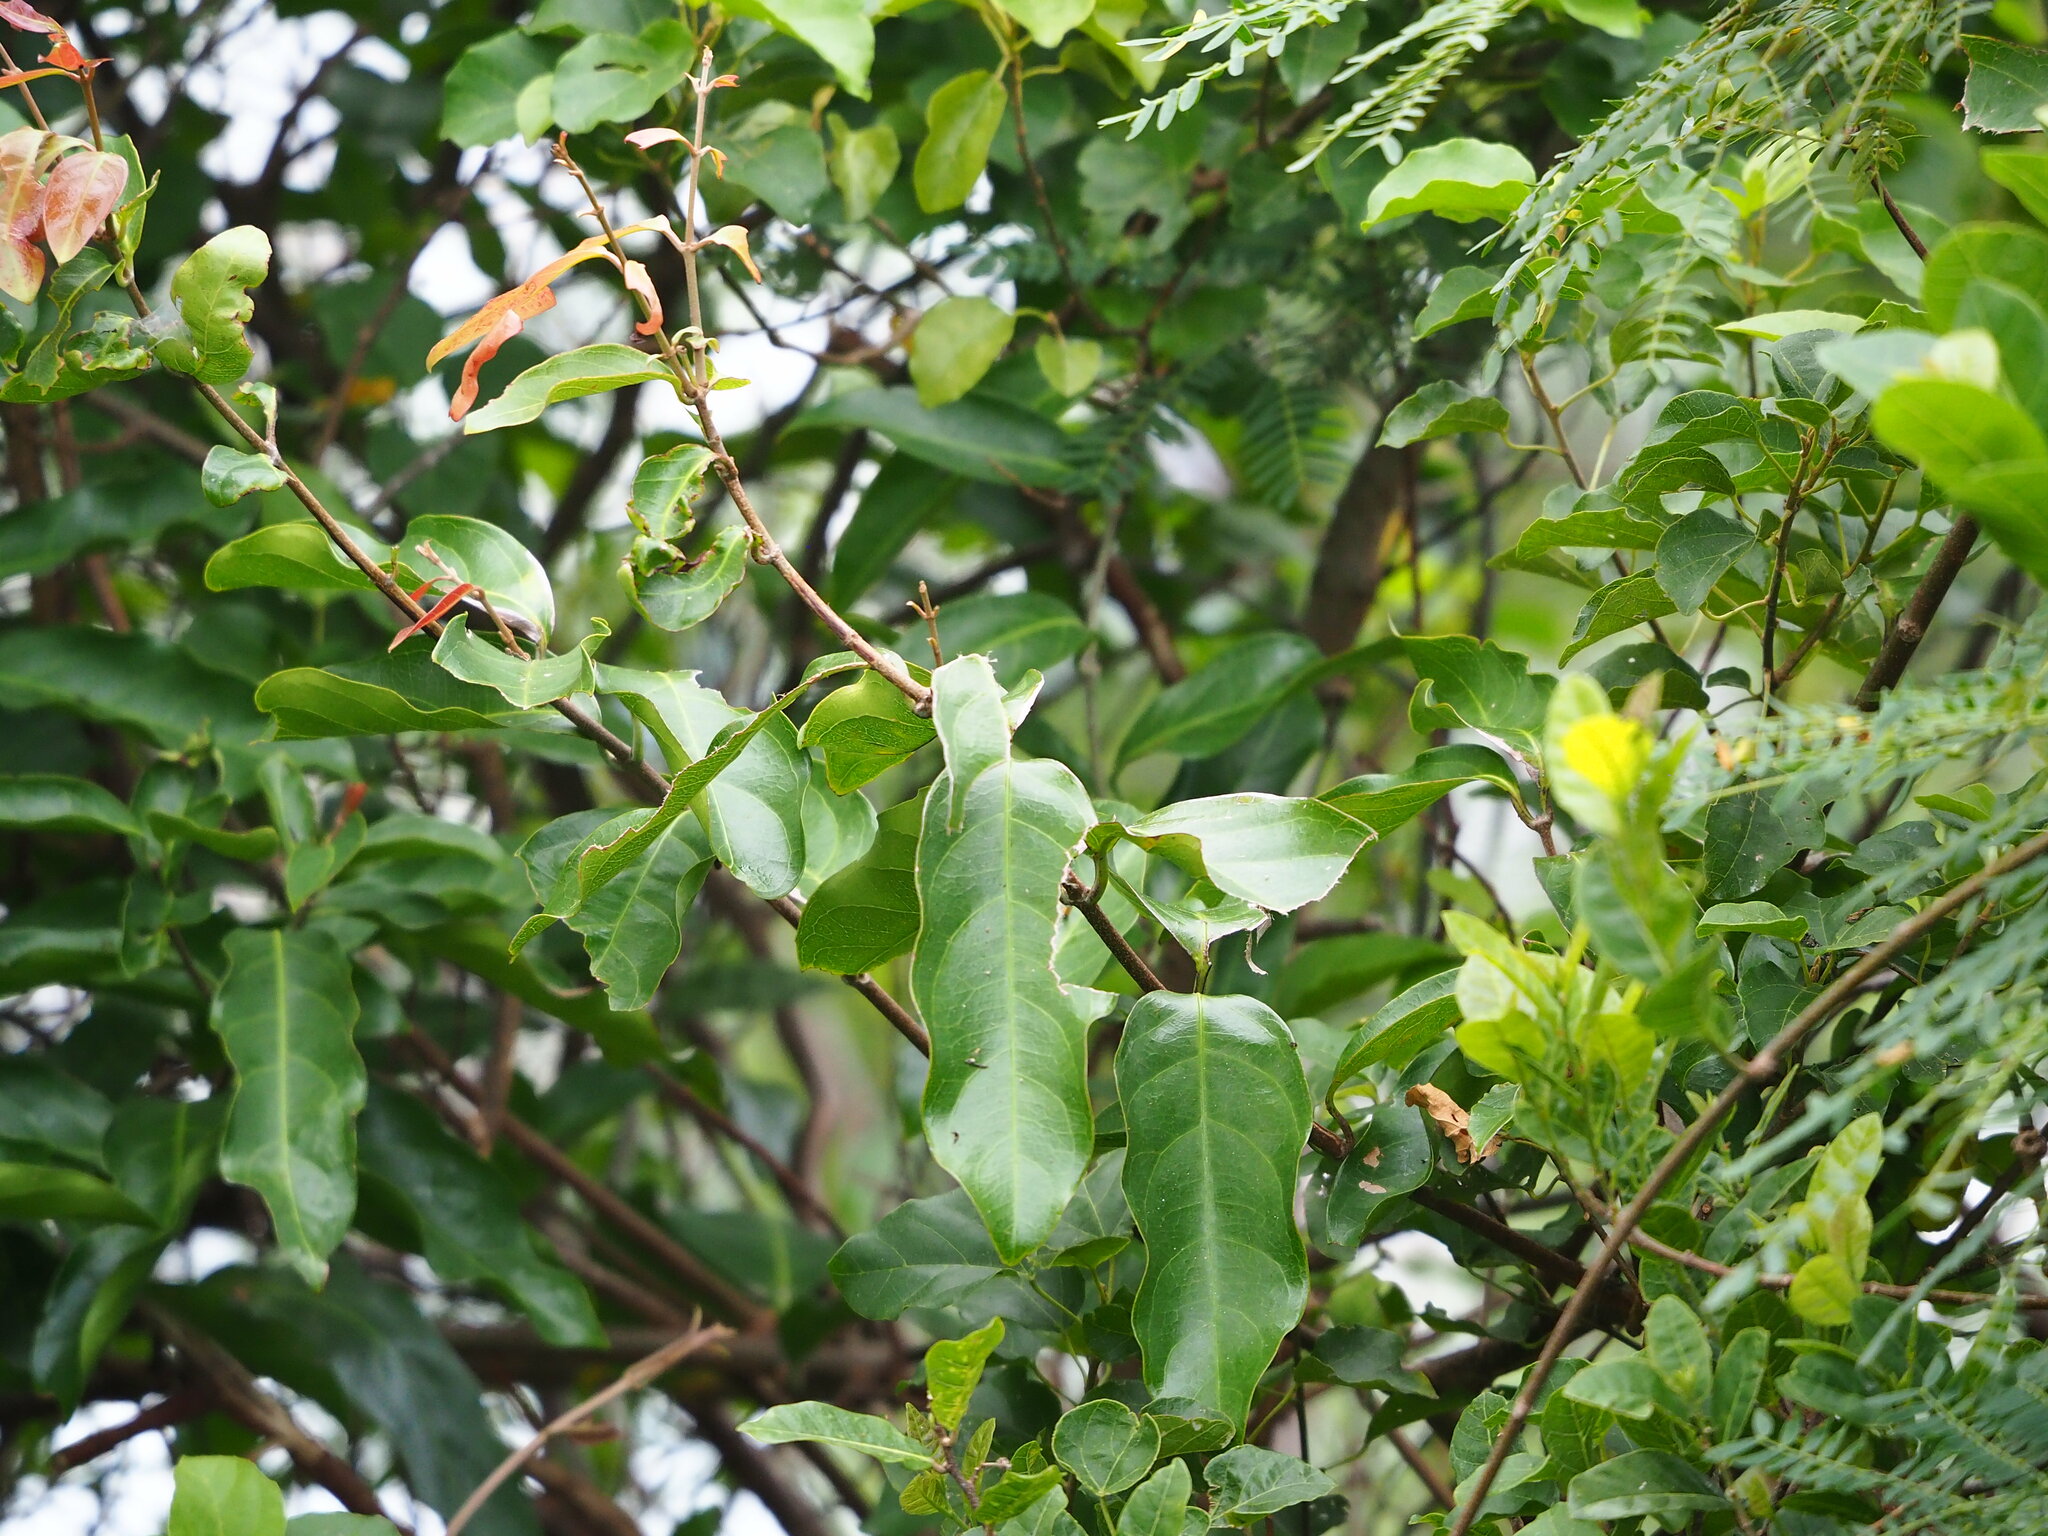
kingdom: Plantae
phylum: Tracheophyta
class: Magnoliopsida
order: Malpighiales
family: Malpighiaceae
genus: Hiptage
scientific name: Hiptage benghalensis
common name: Hiptage
